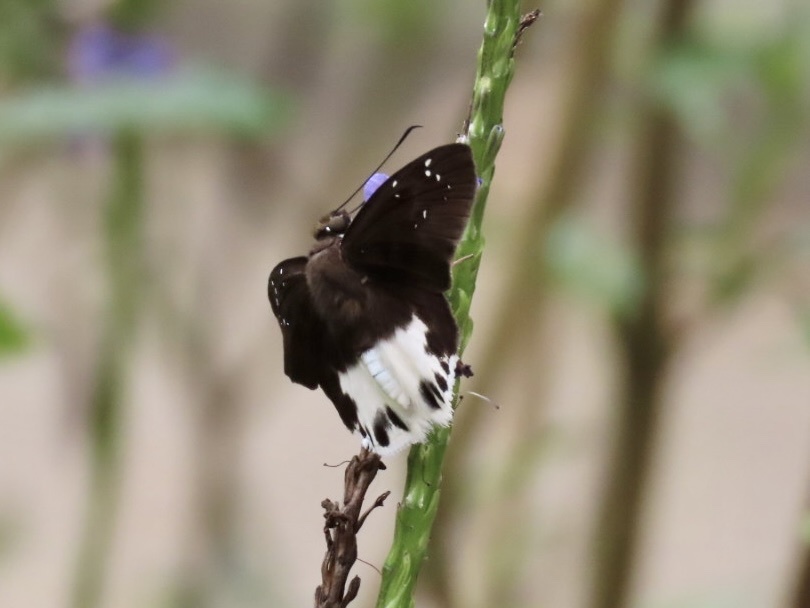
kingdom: Animalia
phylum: Arthropoda
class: Insecta
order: Lepidoptera
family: Hesperiidae
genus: Tagiades
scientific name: Tagiades litigiosa
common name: Water snow flat
